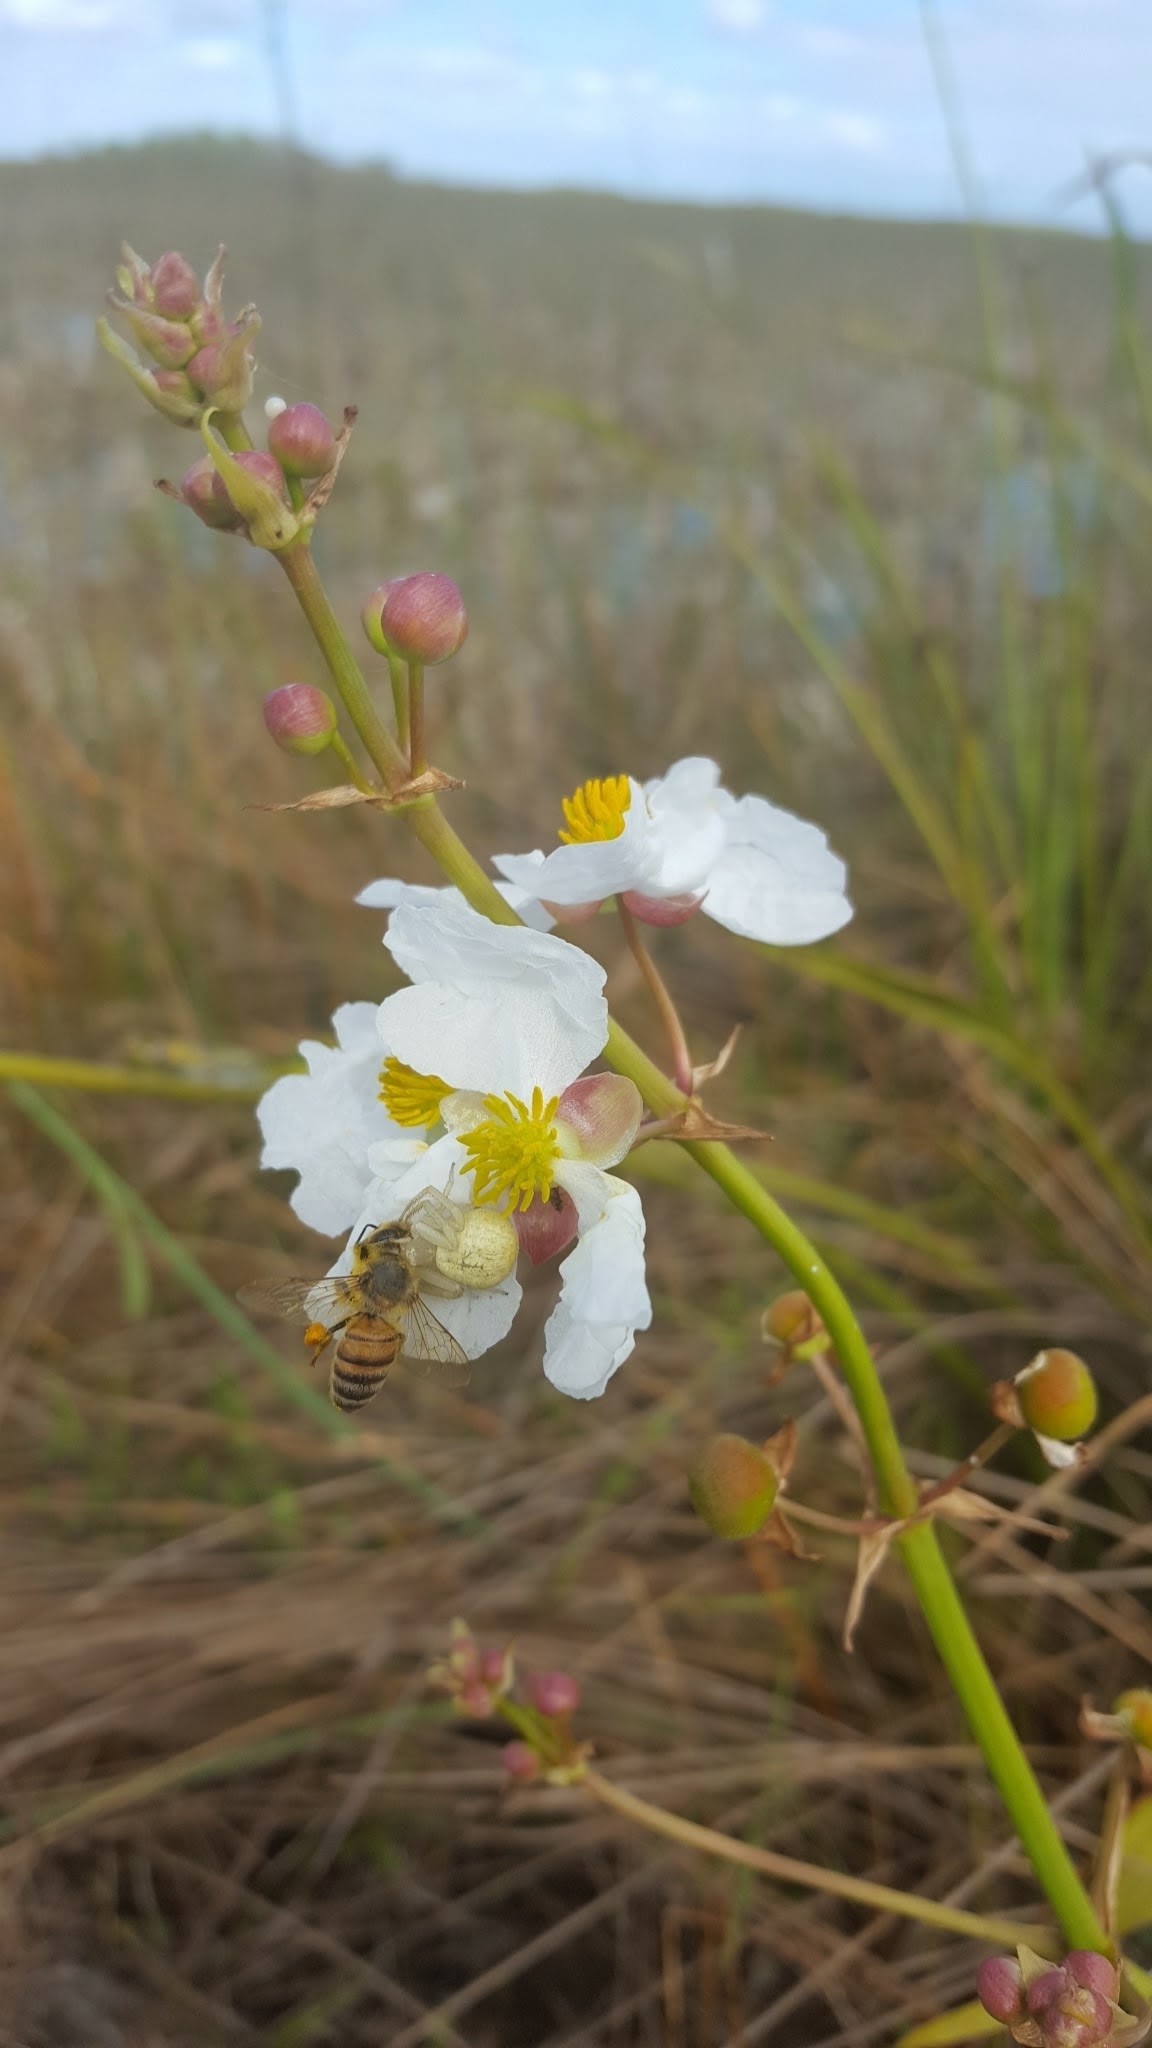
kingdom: Plantae
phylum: Tracheophyta
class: Liliopsida
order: Alismatales
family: Alismataceae
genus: Sagittaria
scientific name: Sagittaria lancifolia
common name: Lance-leaf arrowhead
